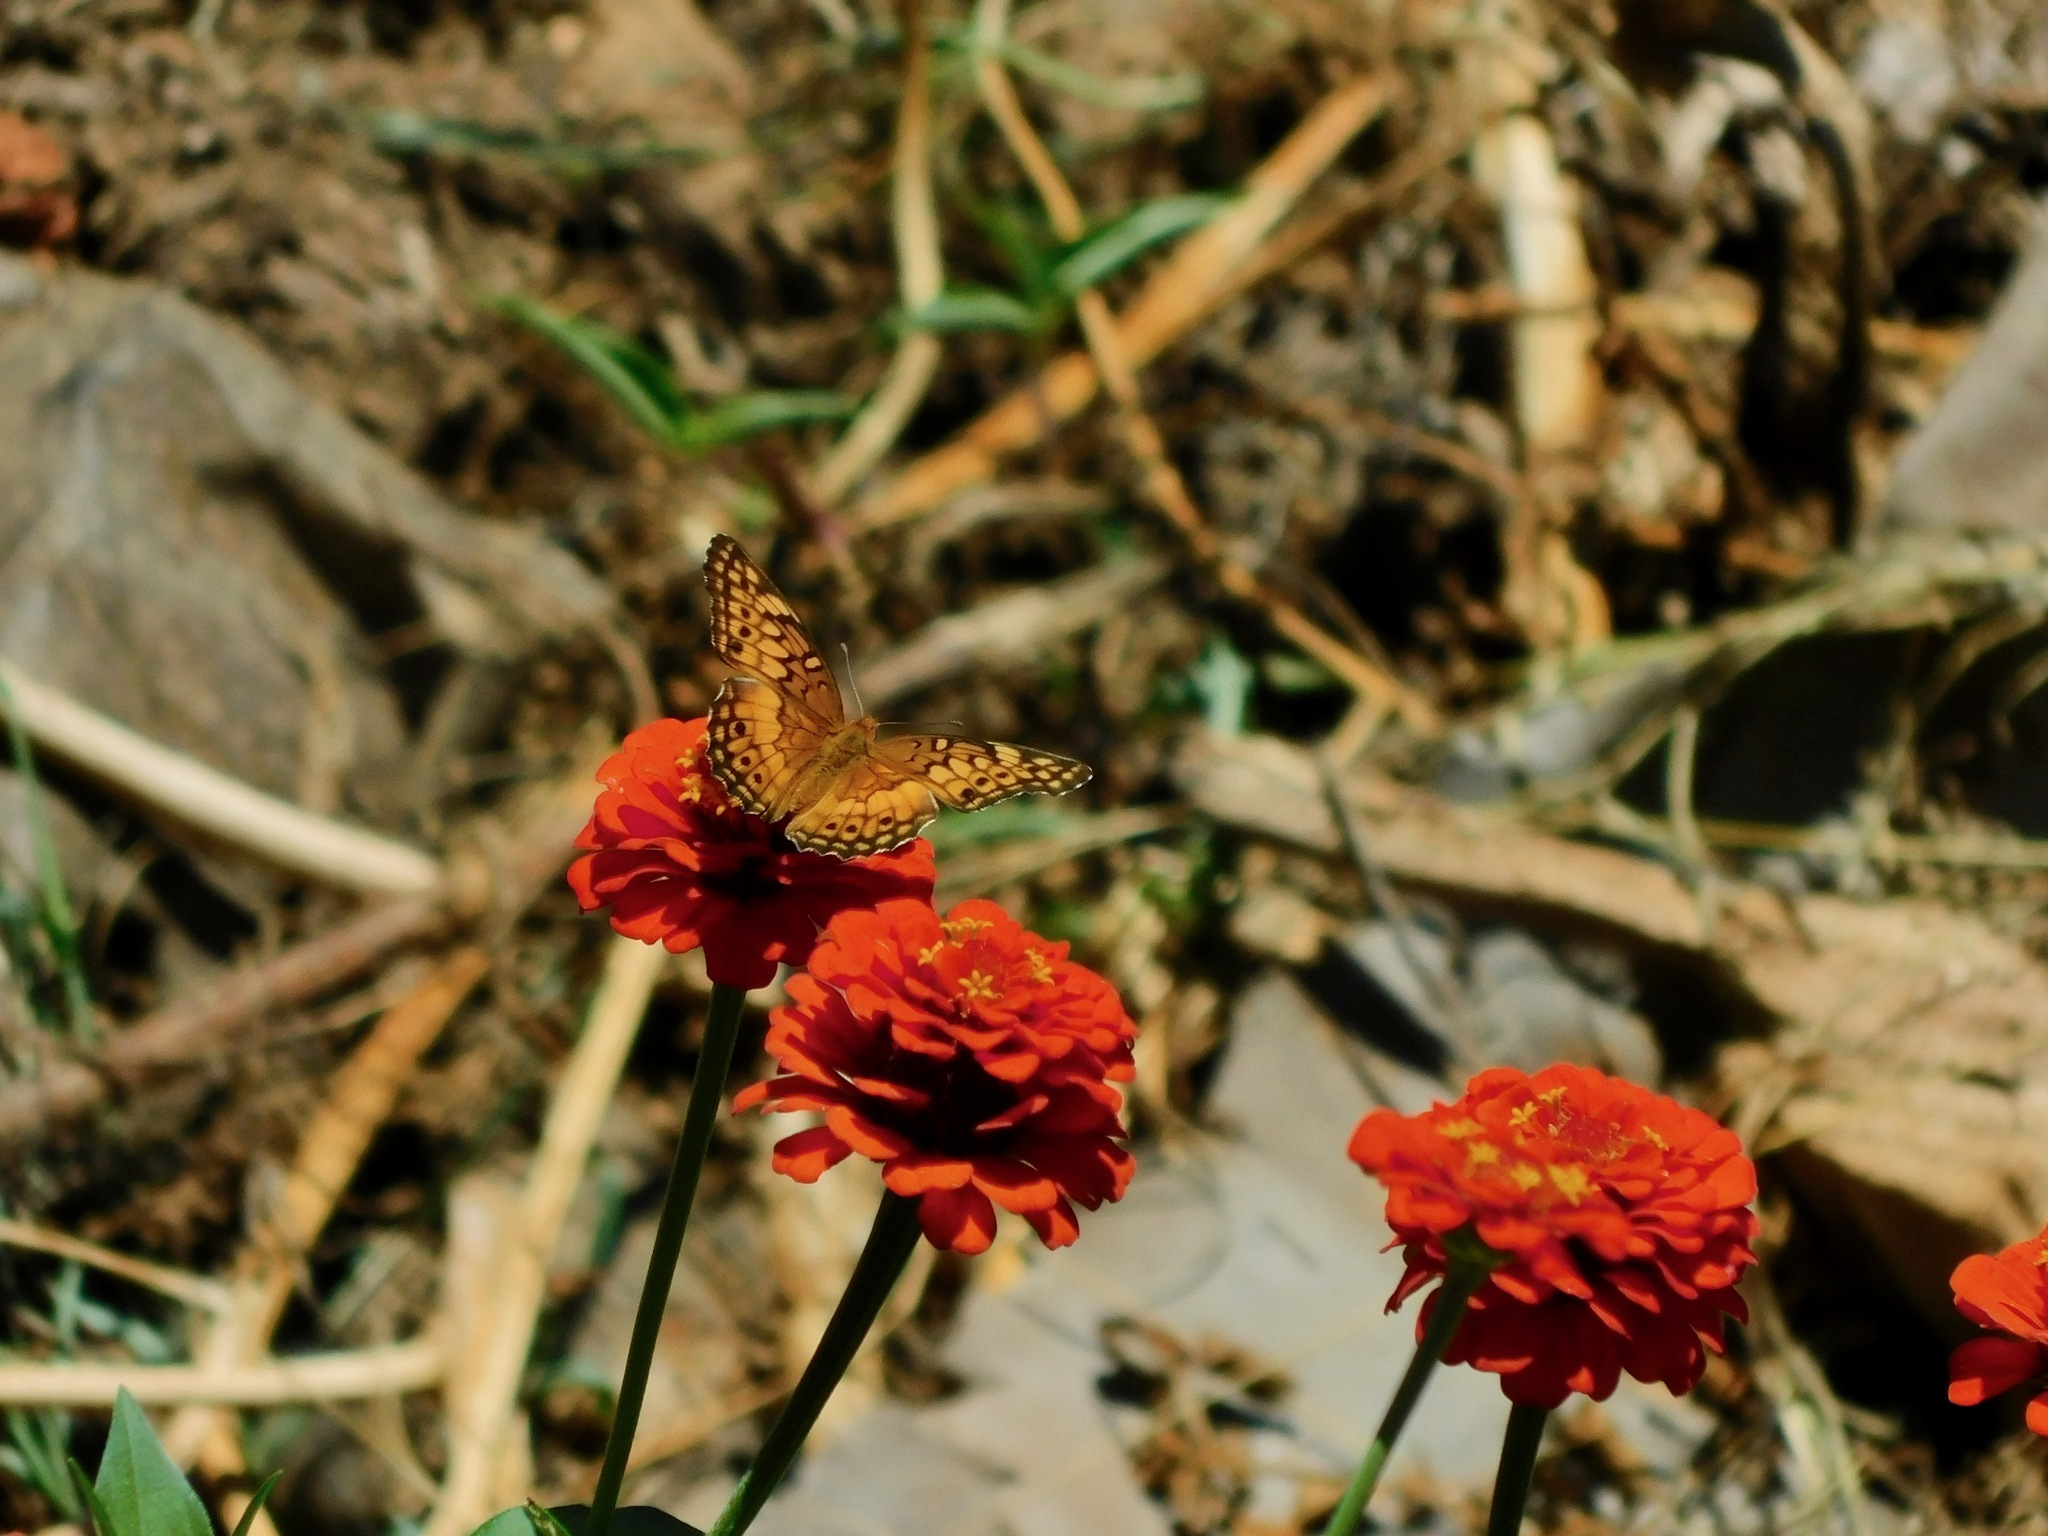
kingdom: Animalia
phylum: Arthropoda
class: Insecta
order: Lepidoptera
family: Nymphalidae
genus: Euptoieta
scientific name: Euptoieta claudia
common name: Variegated fritillary
